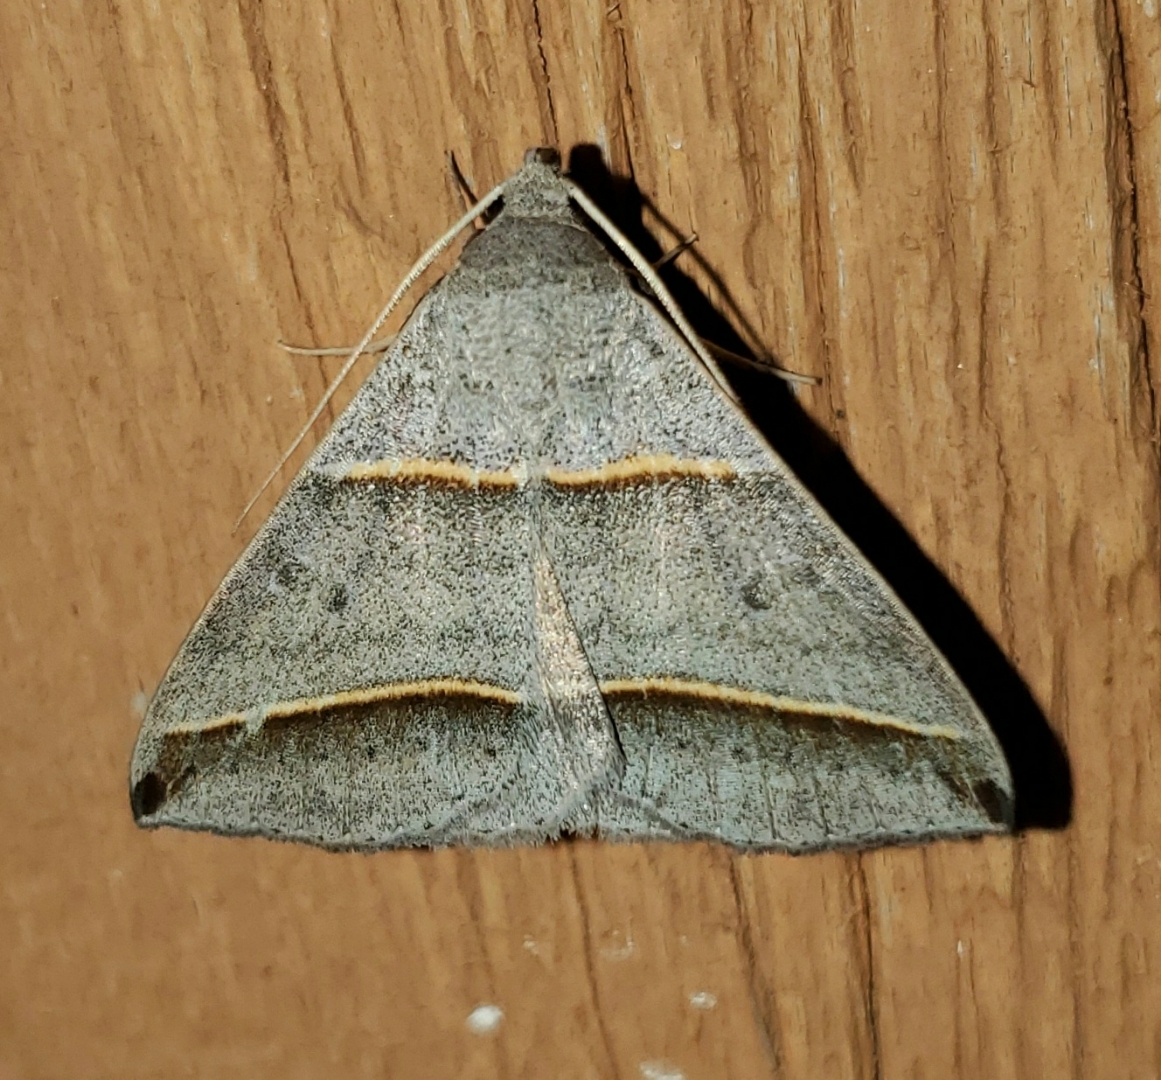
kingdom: Animalia
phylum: Arthropoda
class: Insecta
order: Lepidoptera
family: Erebidae
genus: Ptichodis
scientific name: Ptichodis vinculum
